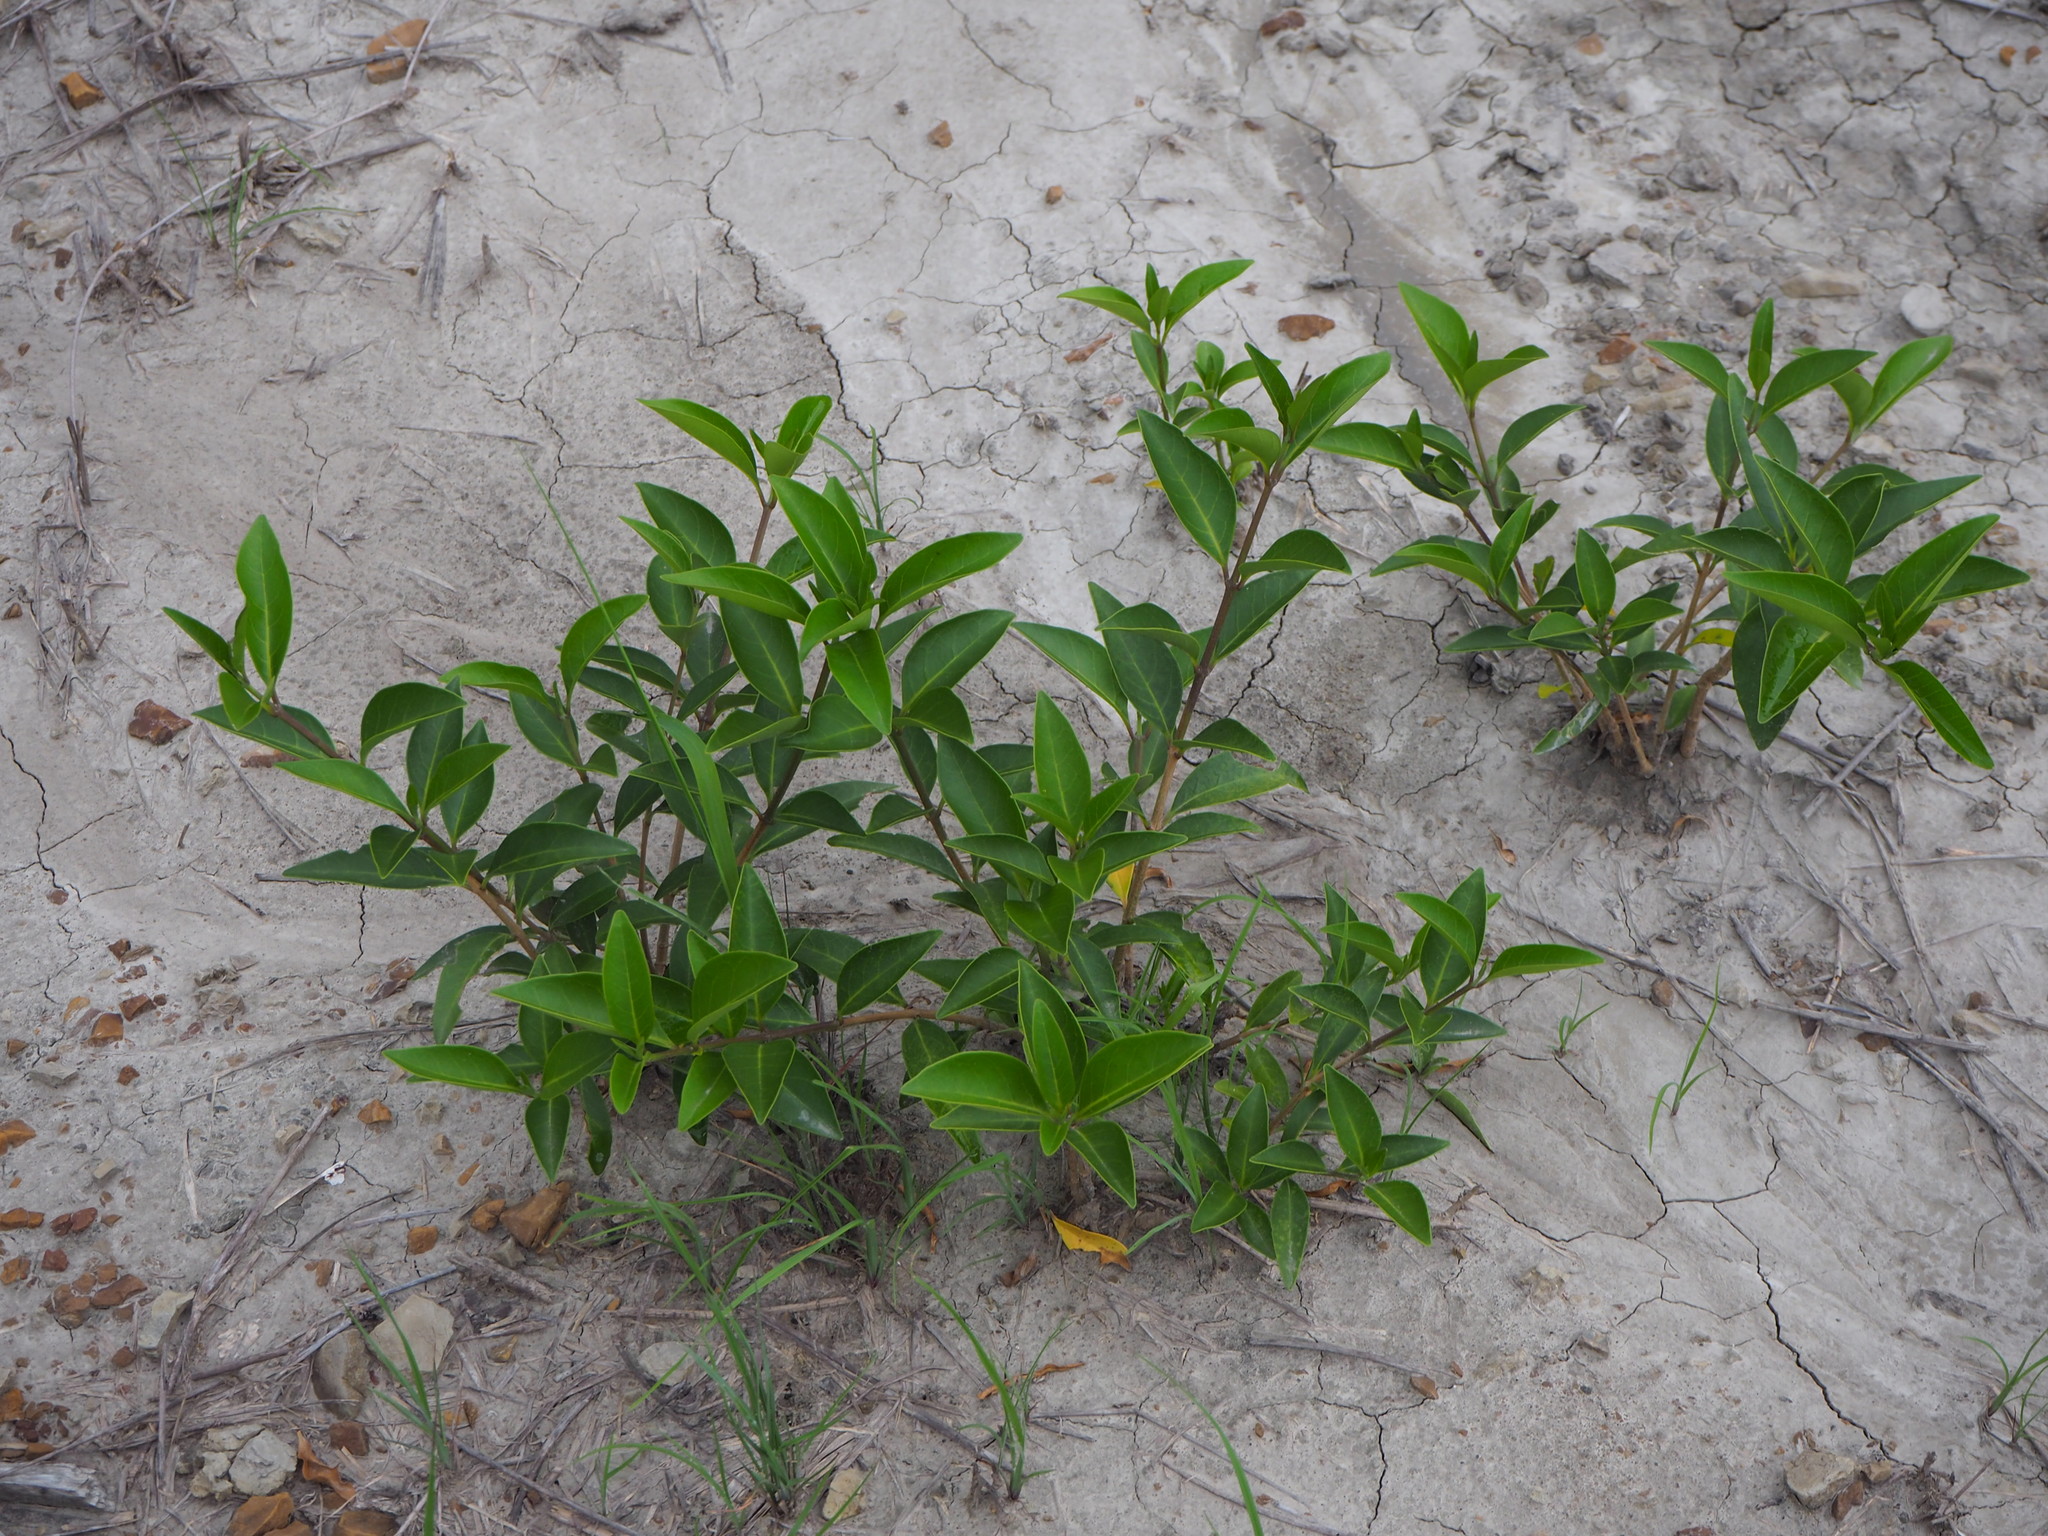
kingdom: Plantae
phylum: Tracheophyta
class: Magnoliopsida
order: Lamiales
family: Lamiaceae
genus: Volkameria
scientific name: Volkameria inermis
